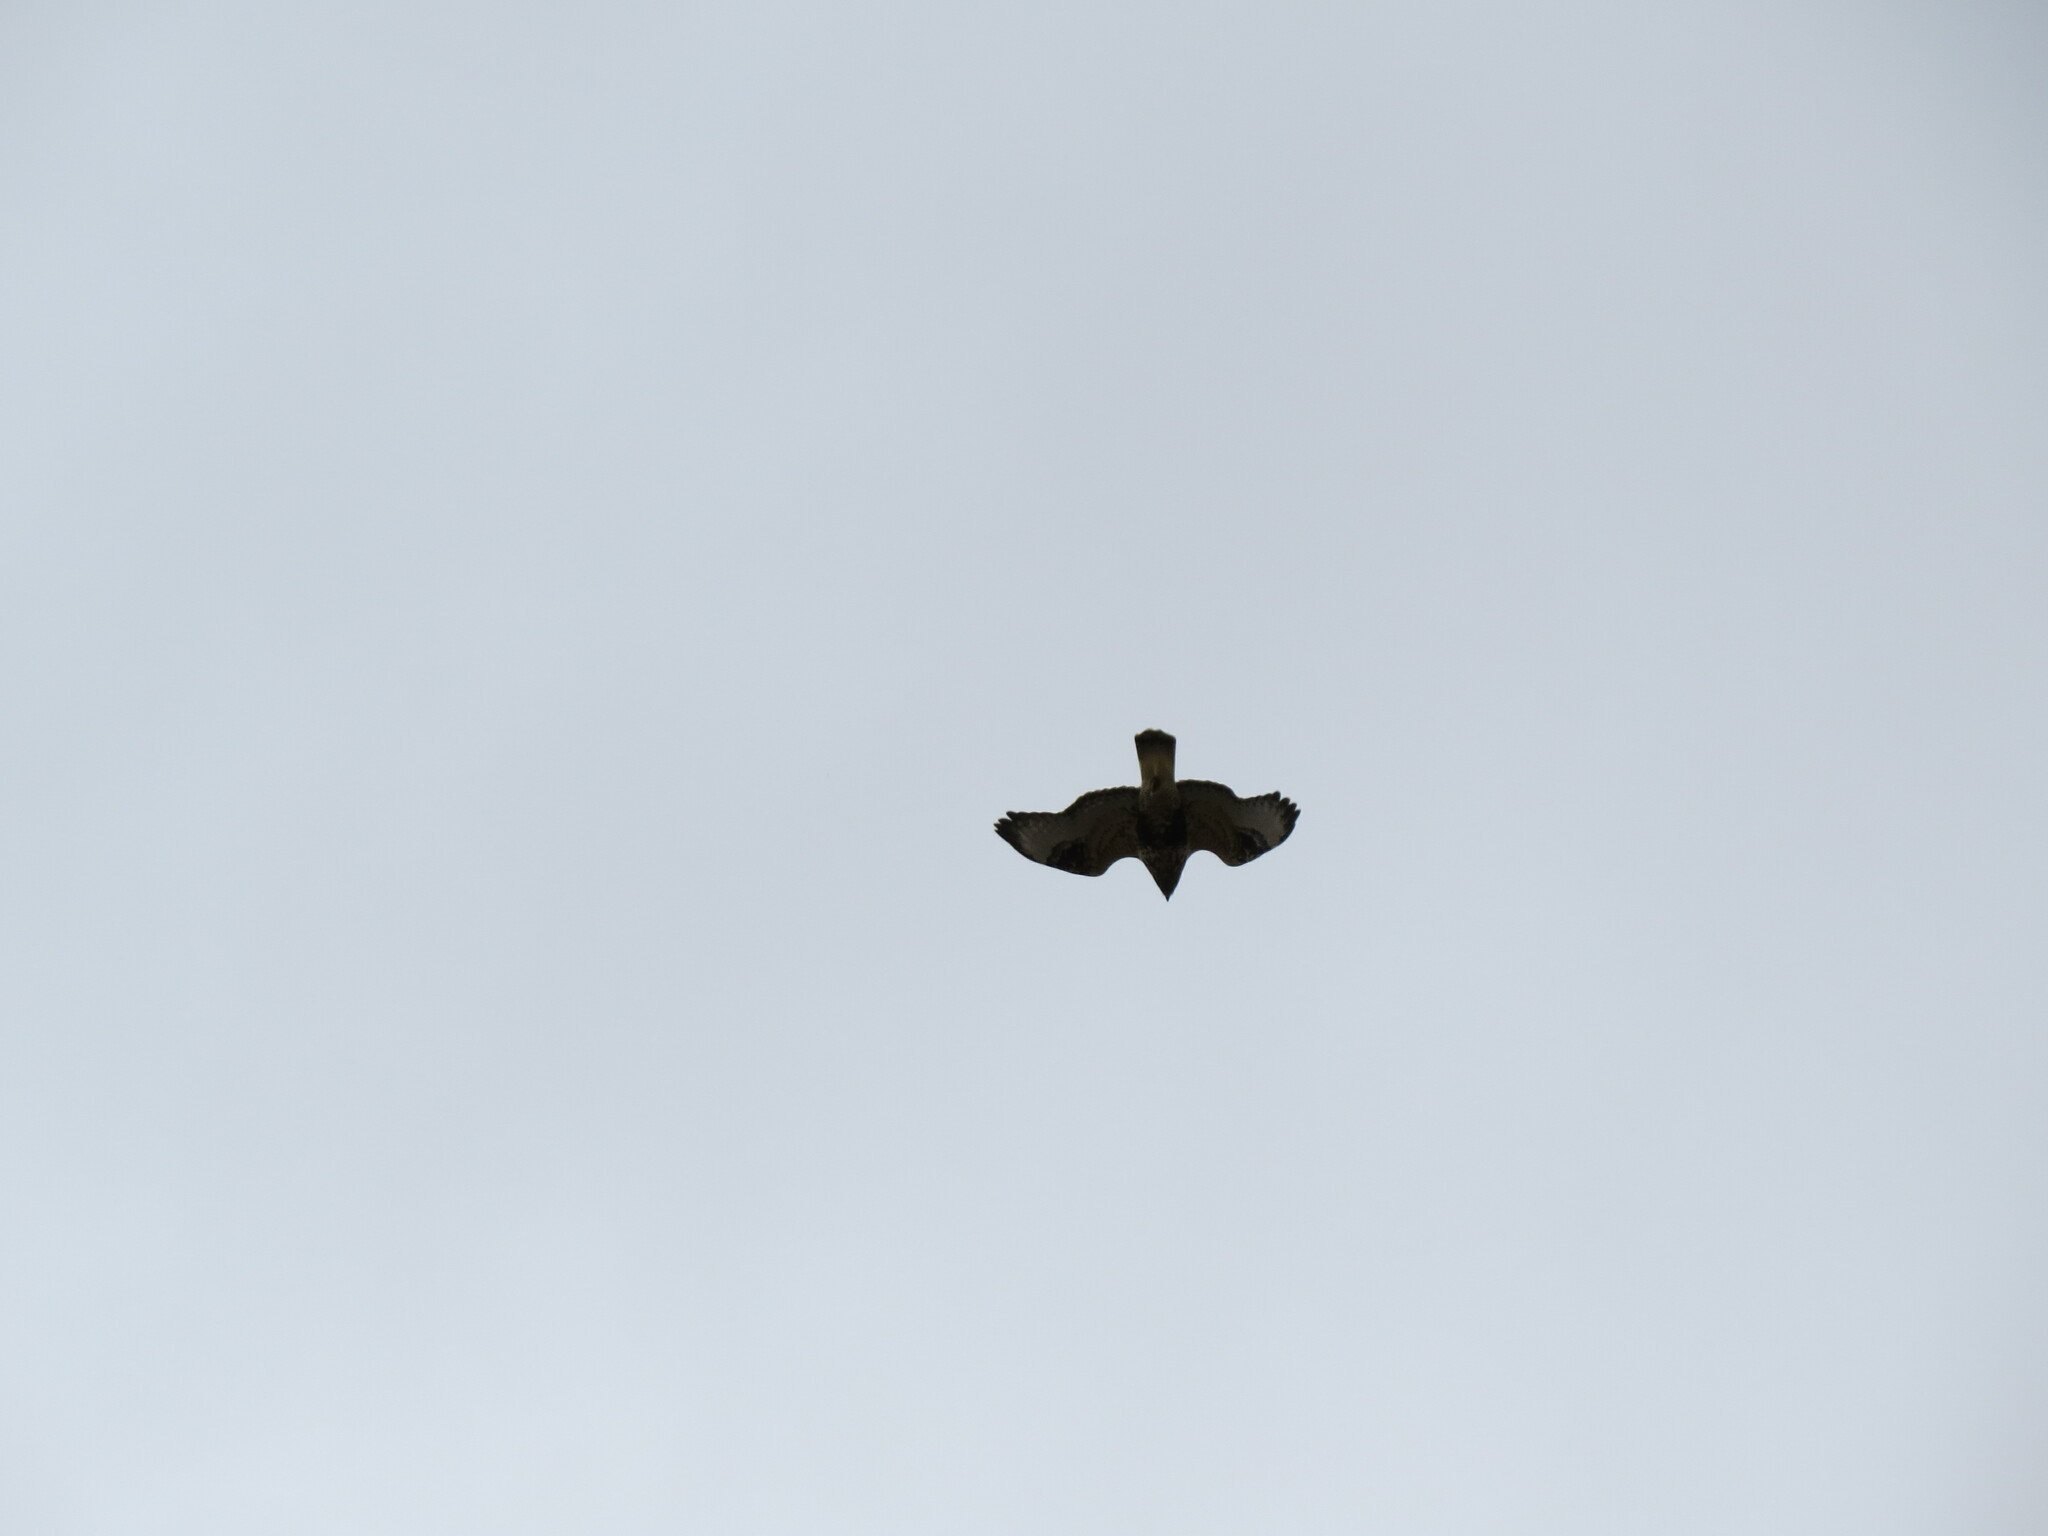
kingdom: Animalia
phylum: Chordata
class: Aves
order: Accipitriformes
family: Accipitridae
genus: Buteo
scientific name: Buteo lagopus
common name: Rough-legged buzzard
